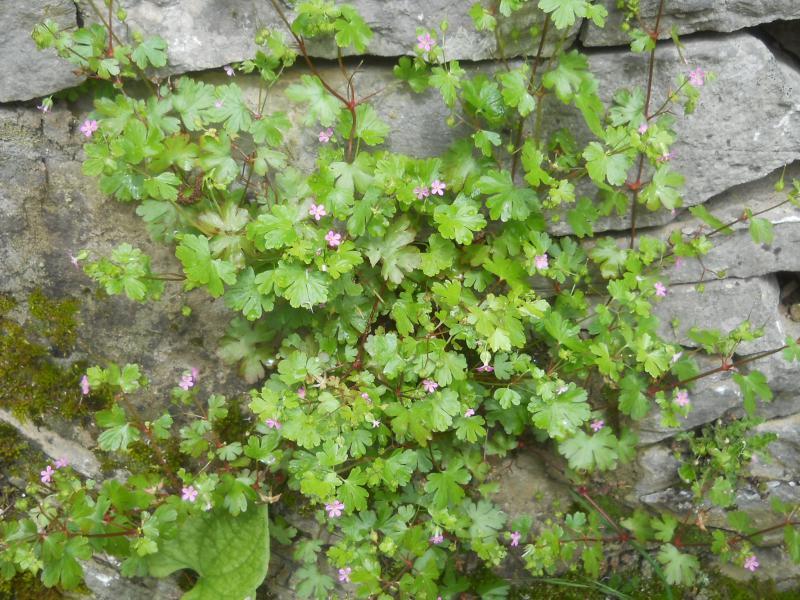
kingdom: Plantae
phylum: Tracheophyta
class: Magnoliopsida
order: Geraniales
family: Geraniaceae
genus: Geranium
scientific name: Geranium lucidum
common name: Shining crane's-bill
